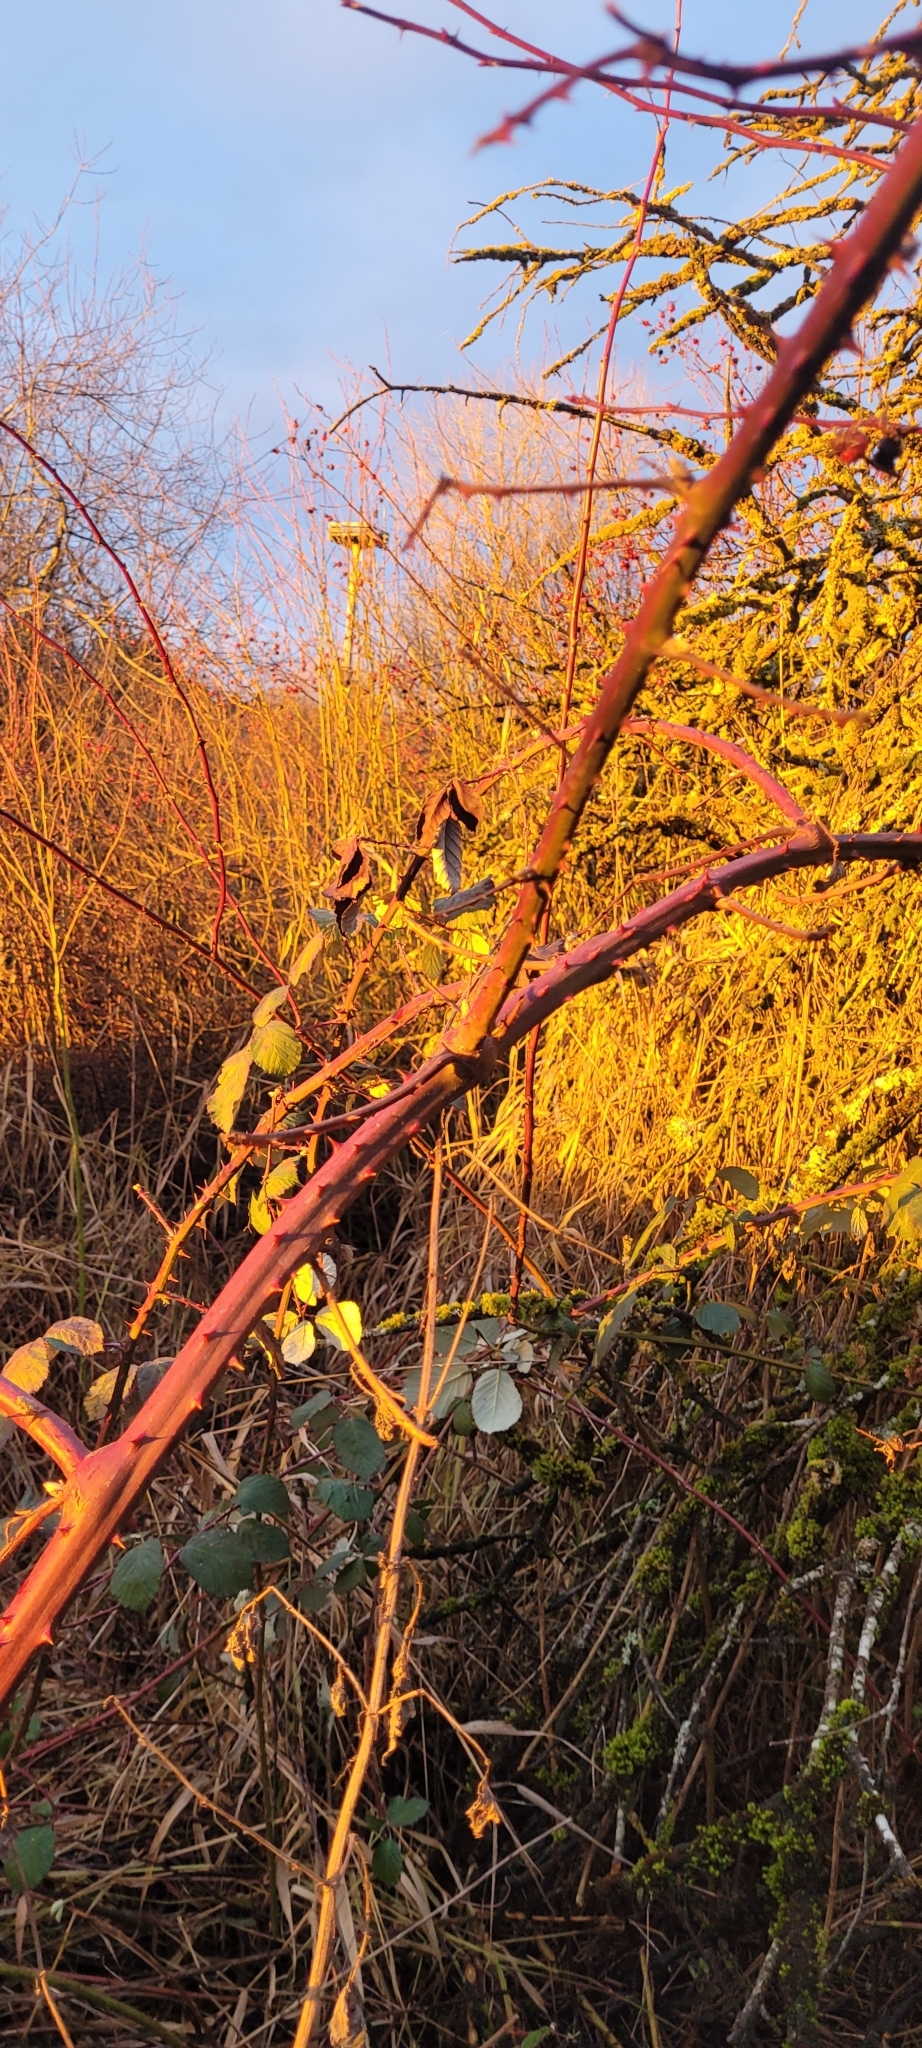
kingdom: Plantae
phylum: Tracheophyta
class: Magnoliopsida
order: Rosales
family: Rosaceae
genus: Rubus
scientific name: Rubus bifrons
